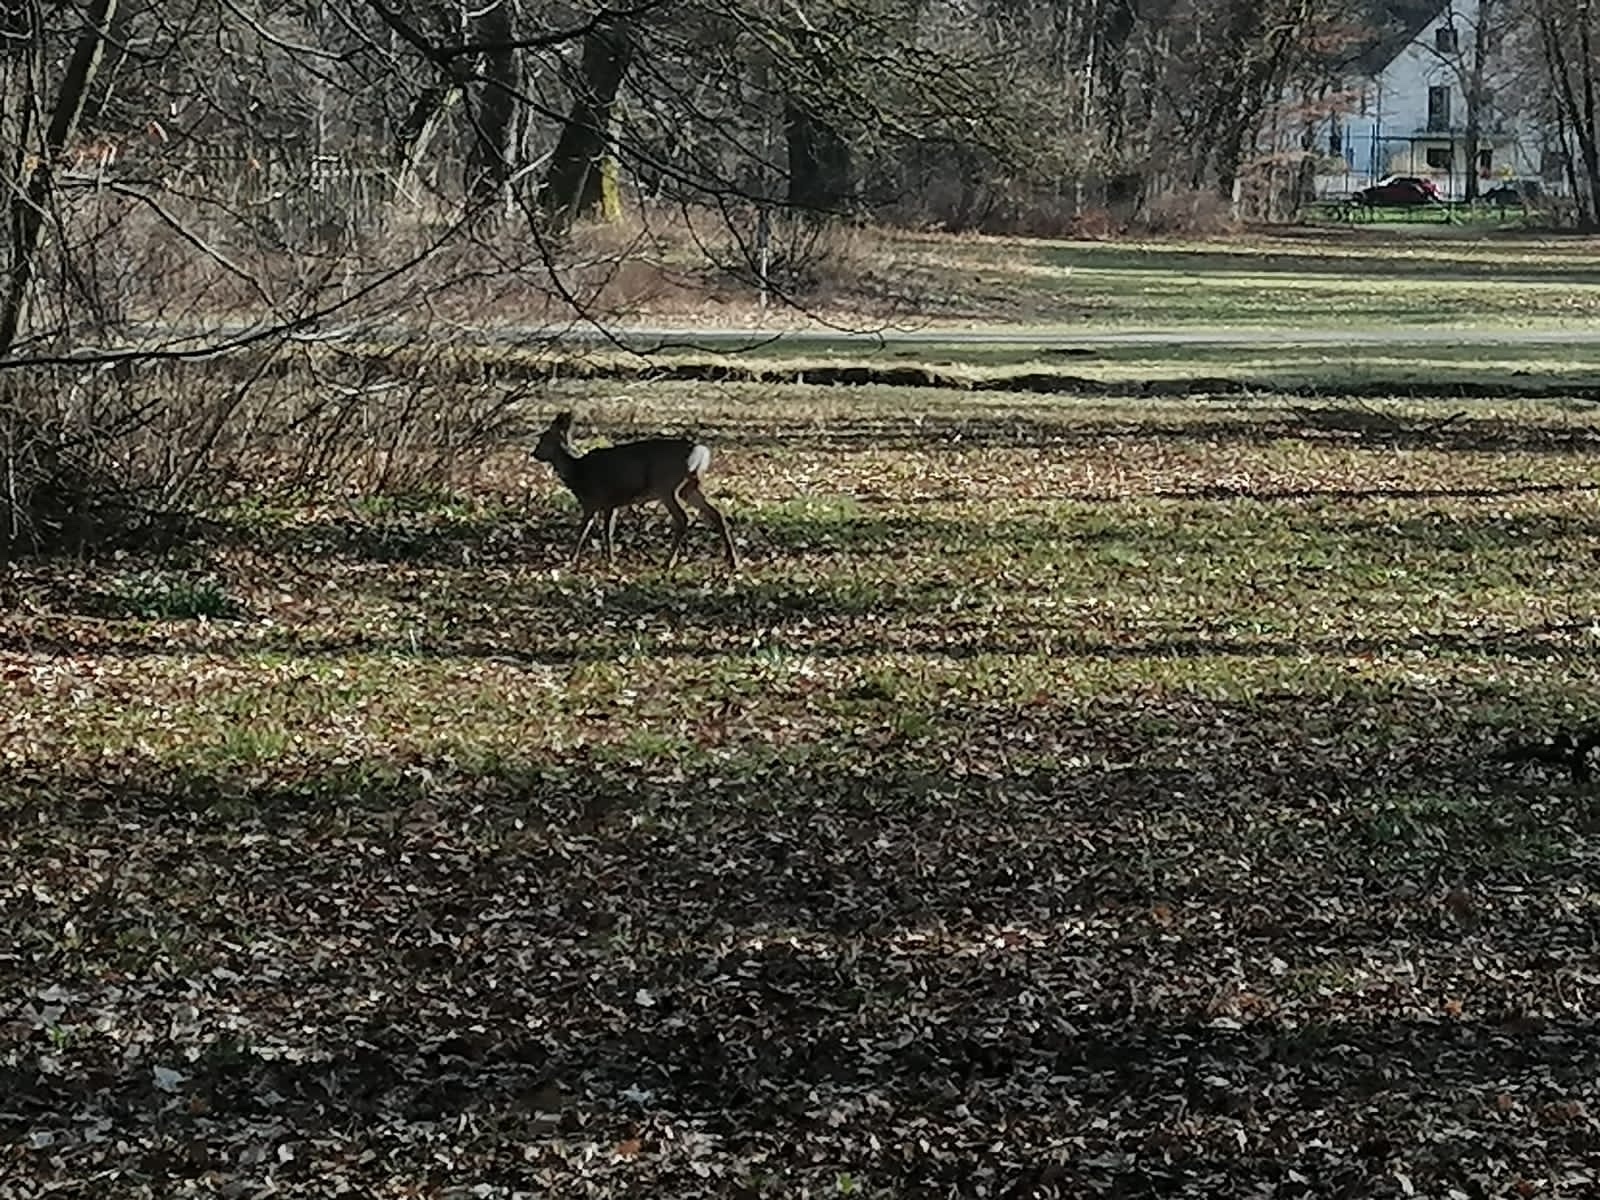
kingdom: Animalia
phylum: Chordata
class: Mammalia
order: Artiodactyla
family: Cervidae
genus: Capreolus
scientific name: Capreolus capreolus
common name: Western roe deer
